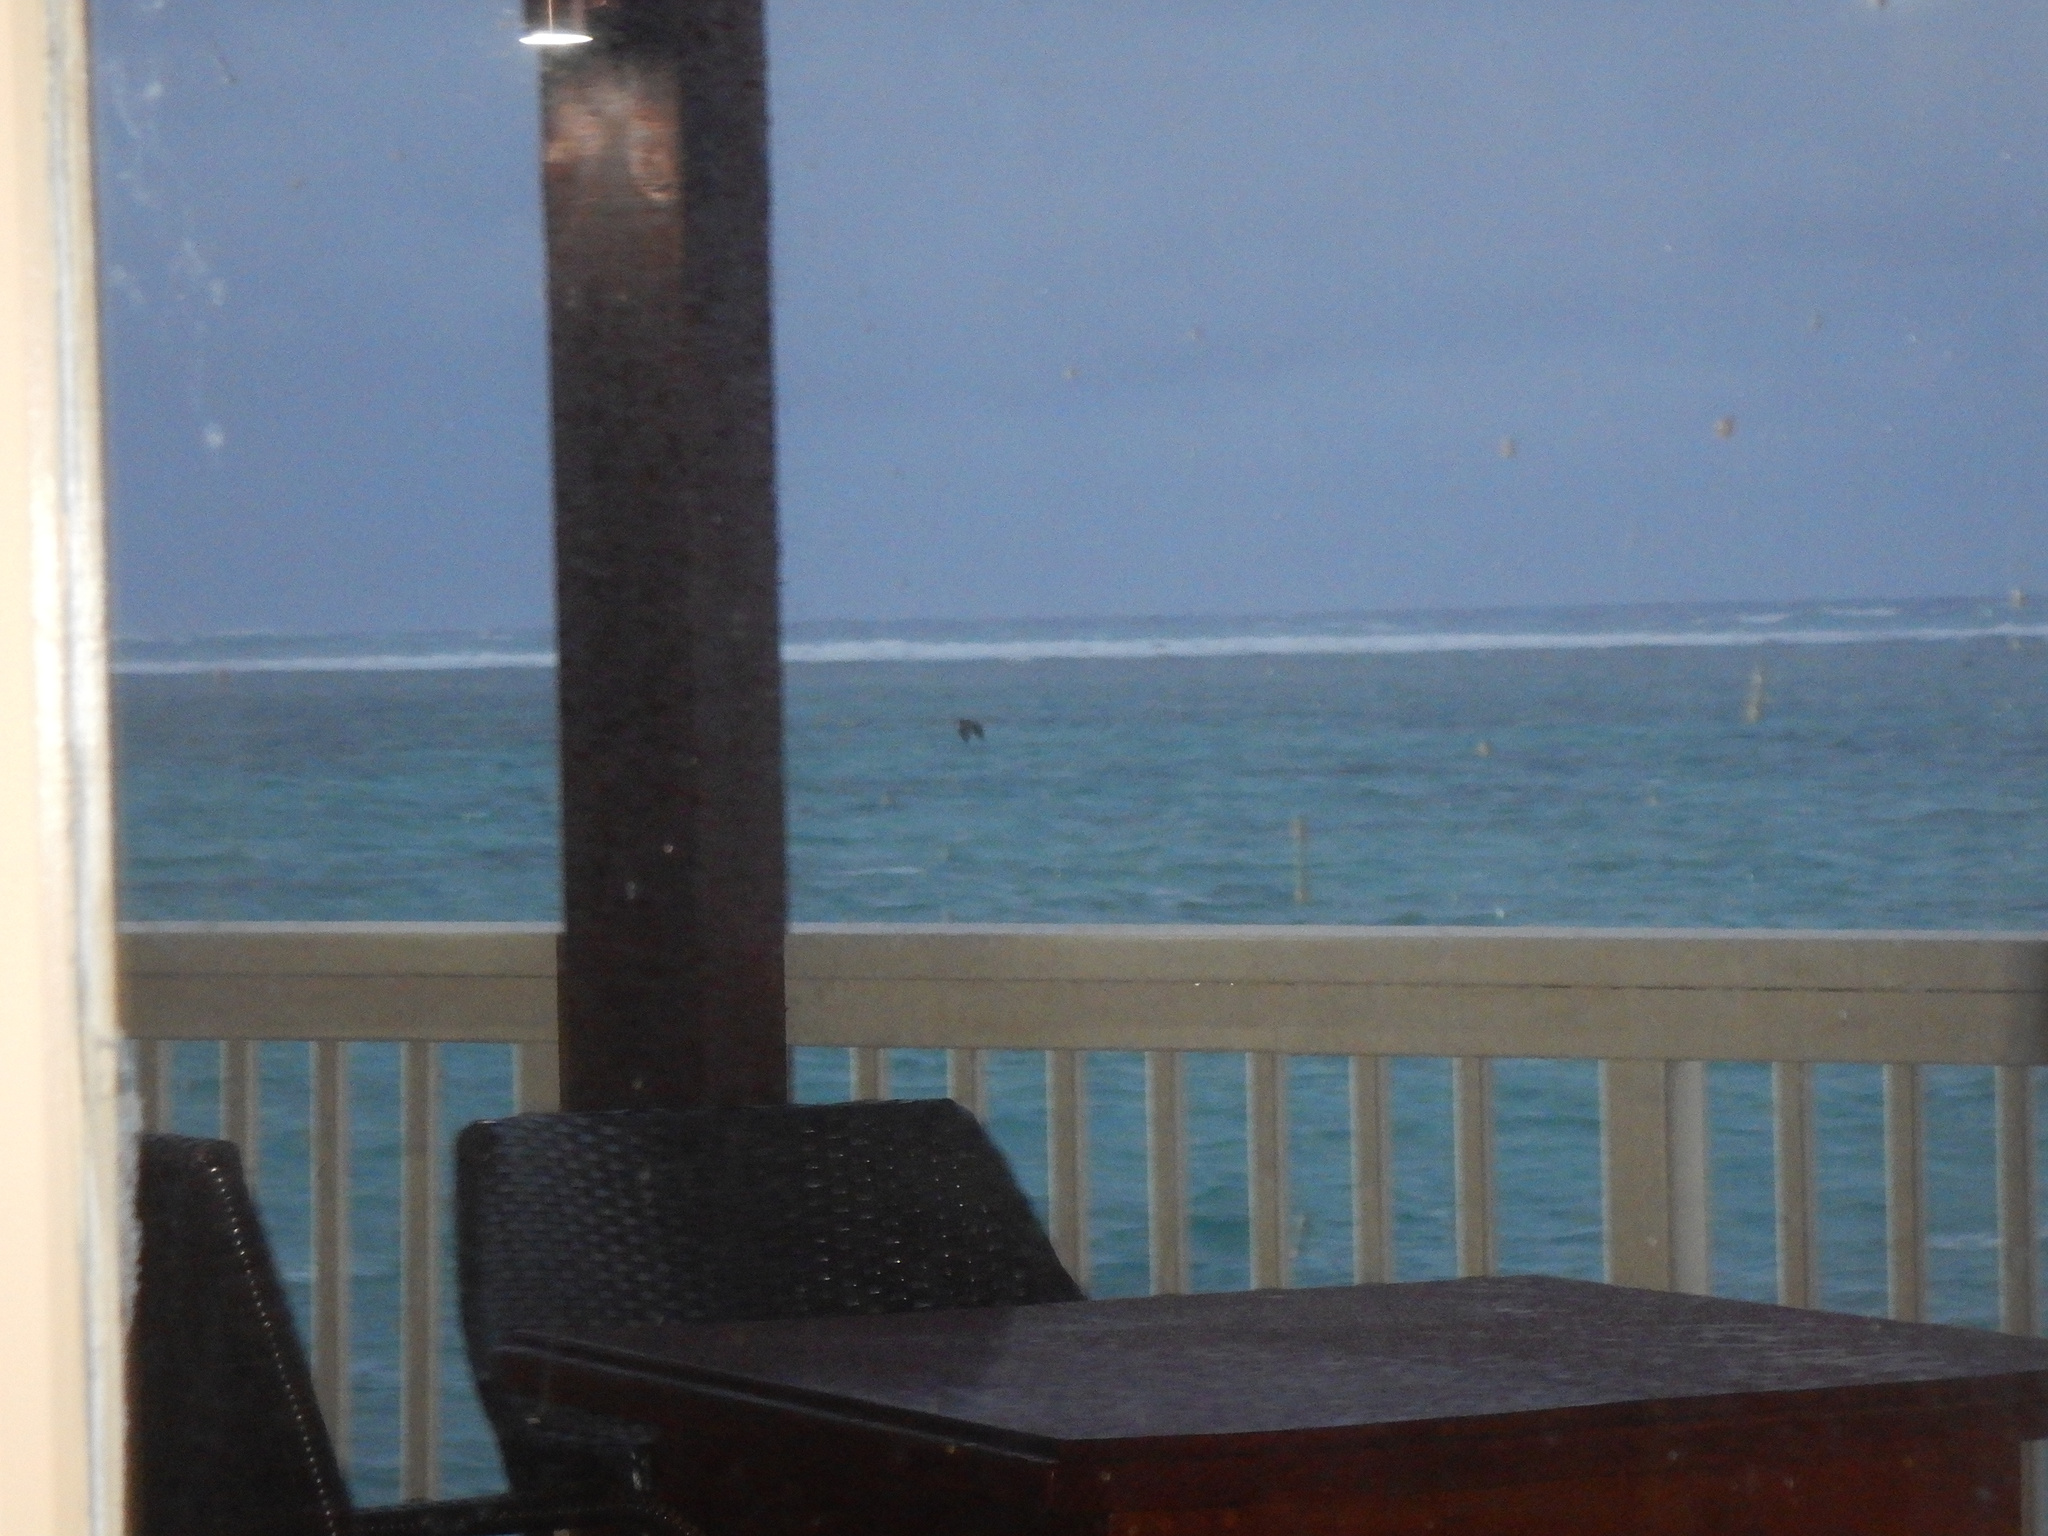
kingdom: Animalia
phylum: Chordata
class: Aves
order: Pelecaniformes
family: Ardeidae
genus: Egretta
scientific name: Egretta sacra
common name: Pacific reef heron
